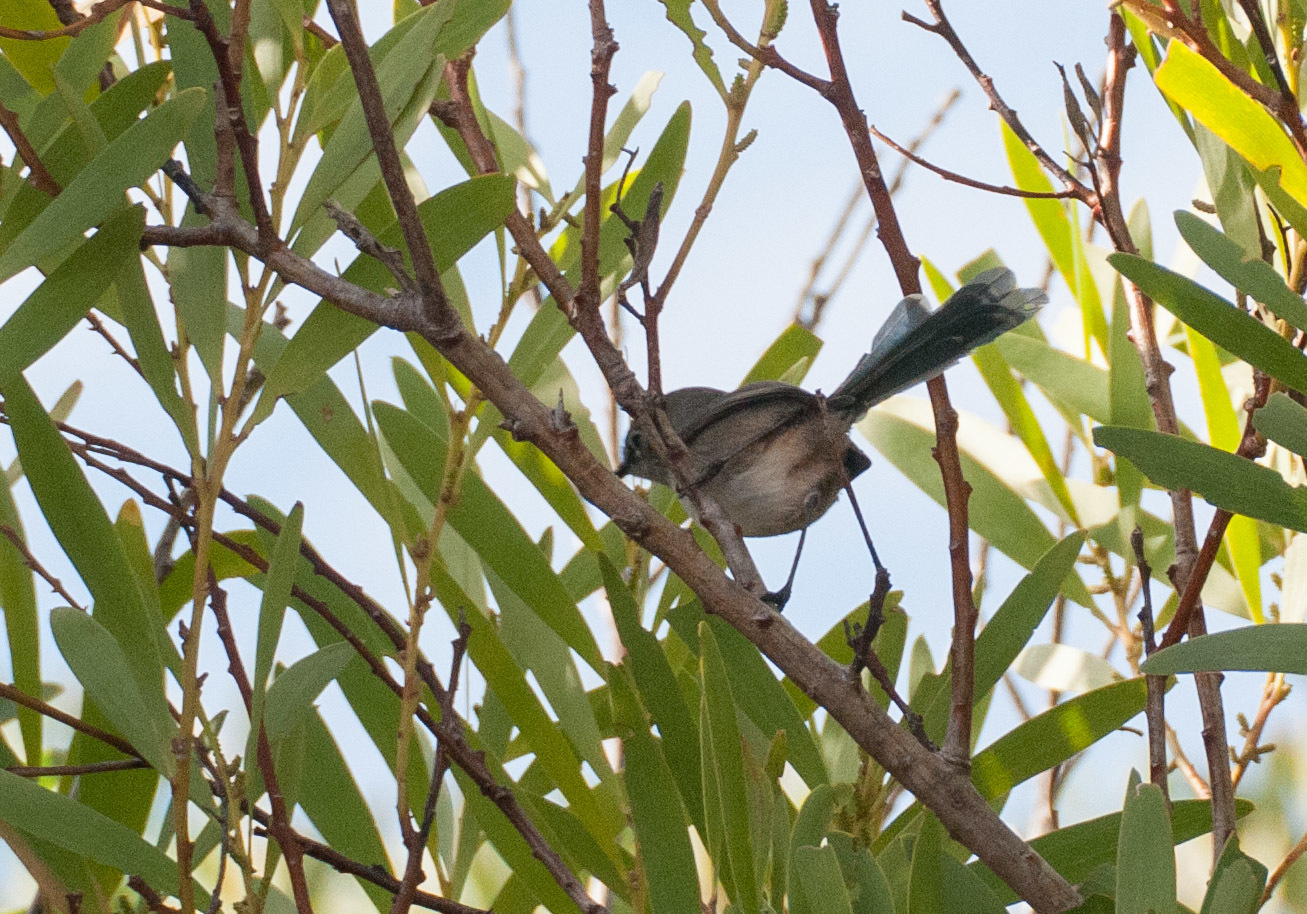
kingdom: Animalia
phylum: Chordata
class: Aves
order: Passeriformes
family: Maluridae
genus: Malurus
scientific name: Malurus pulcherrimus
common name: Blue-breasted fairywren
